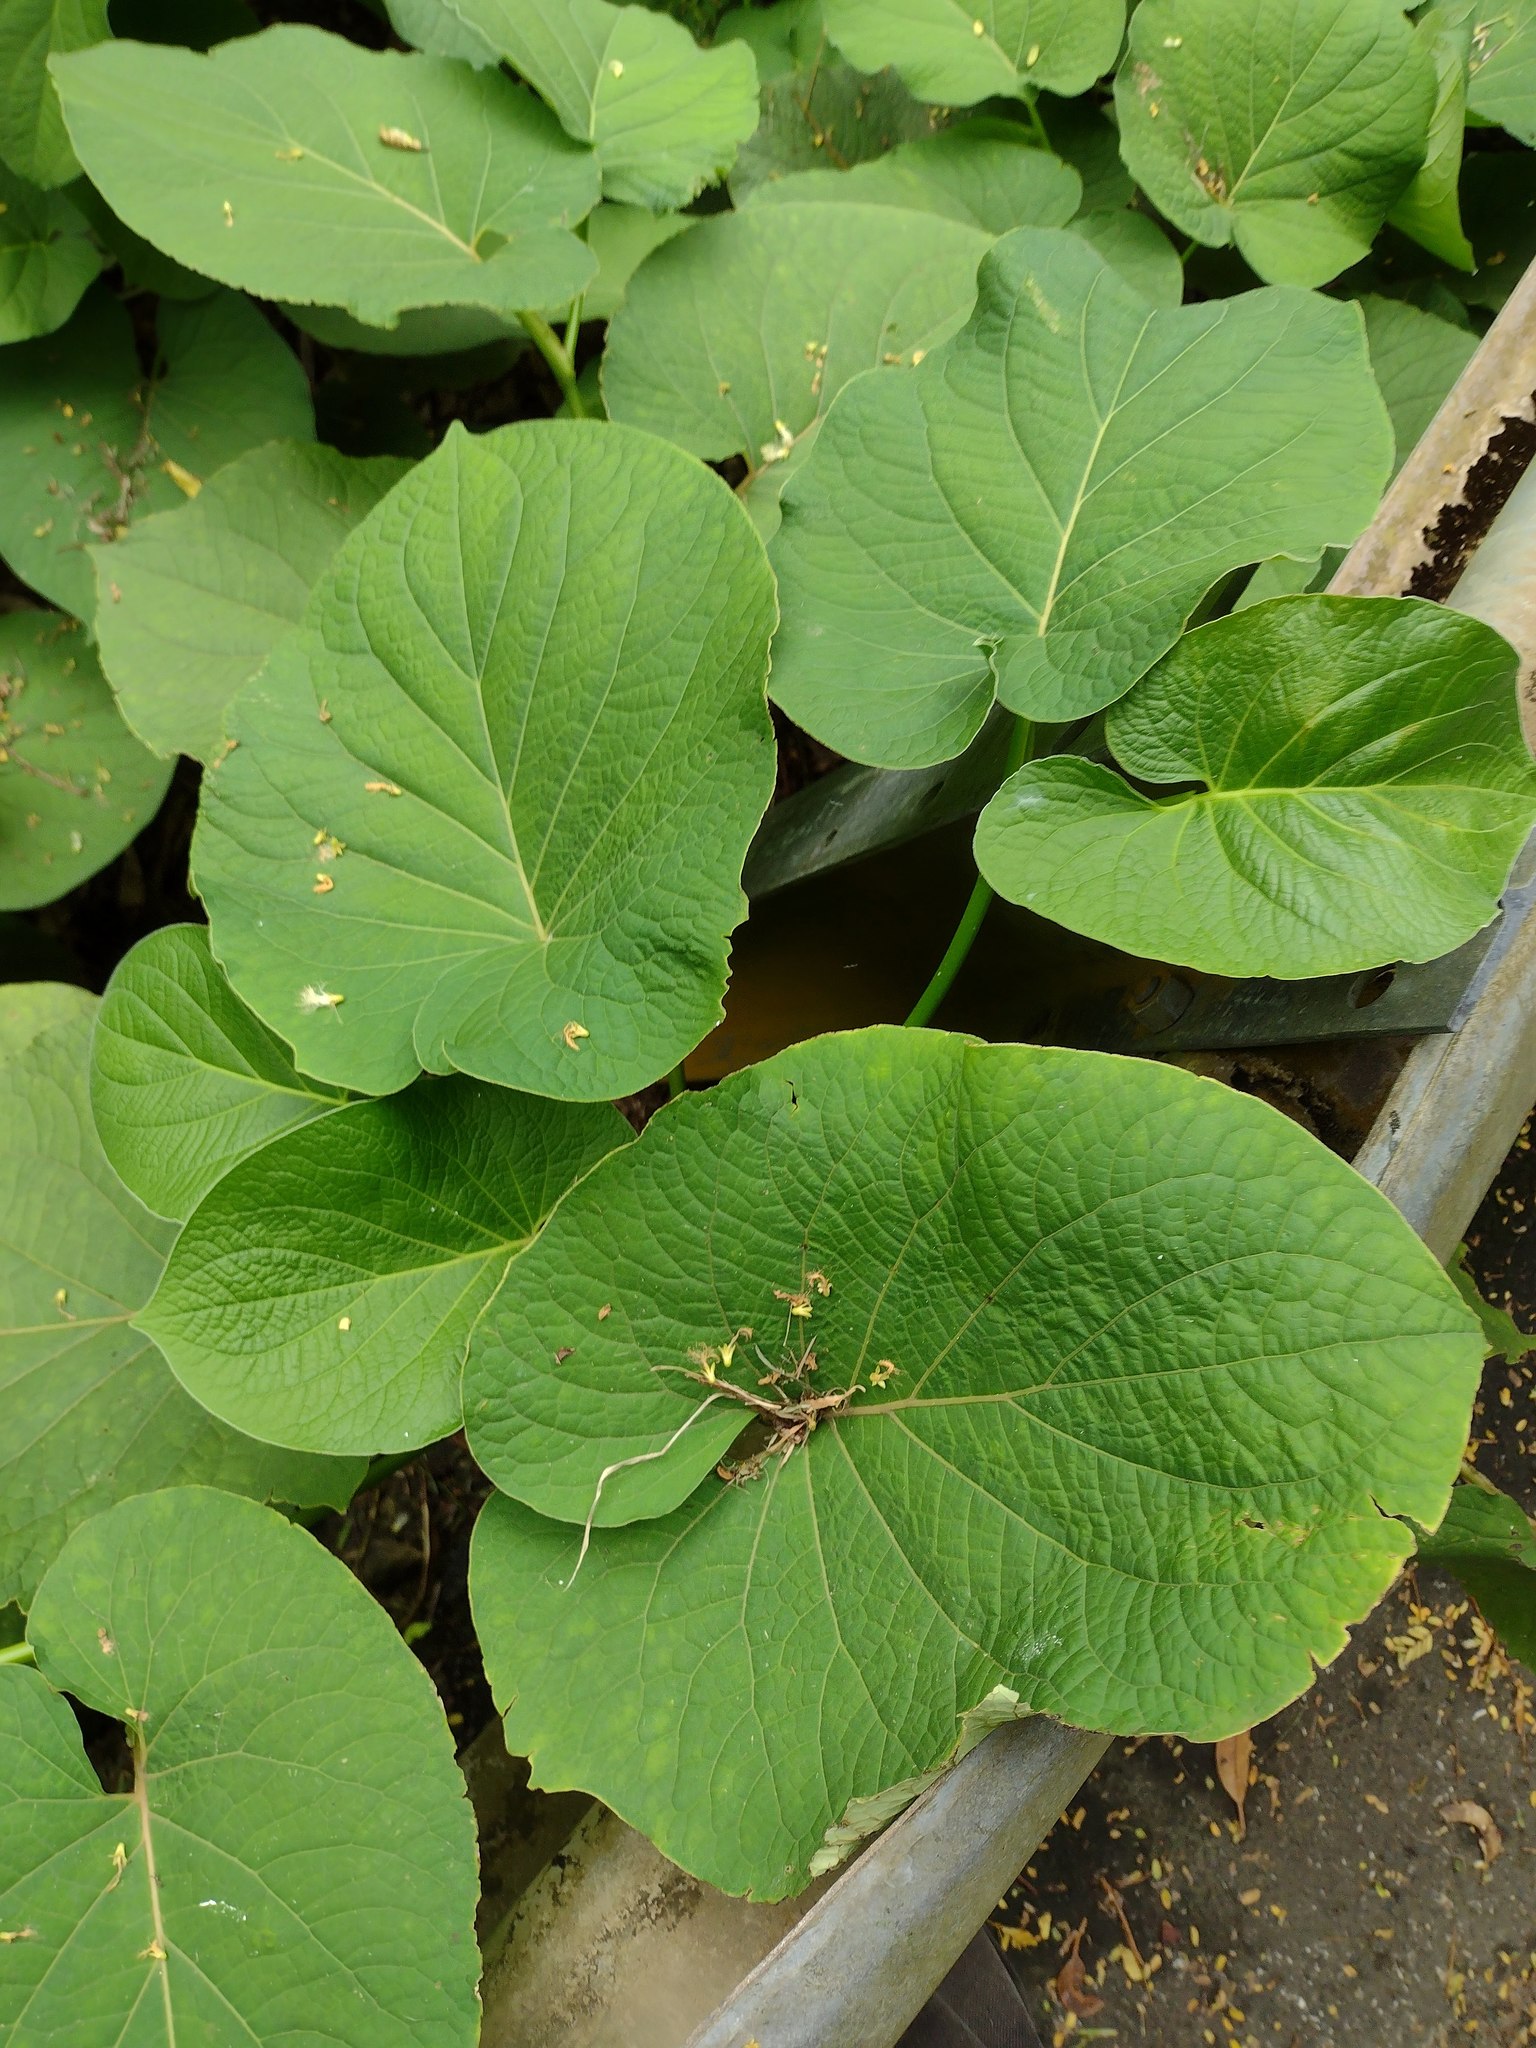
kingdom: Plantae
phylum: Tracheophyta
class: Magnoliopsida
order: Piperales
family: Piperaceae
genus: Piper
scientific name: Piper auritum
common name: Vera cruz pepper
